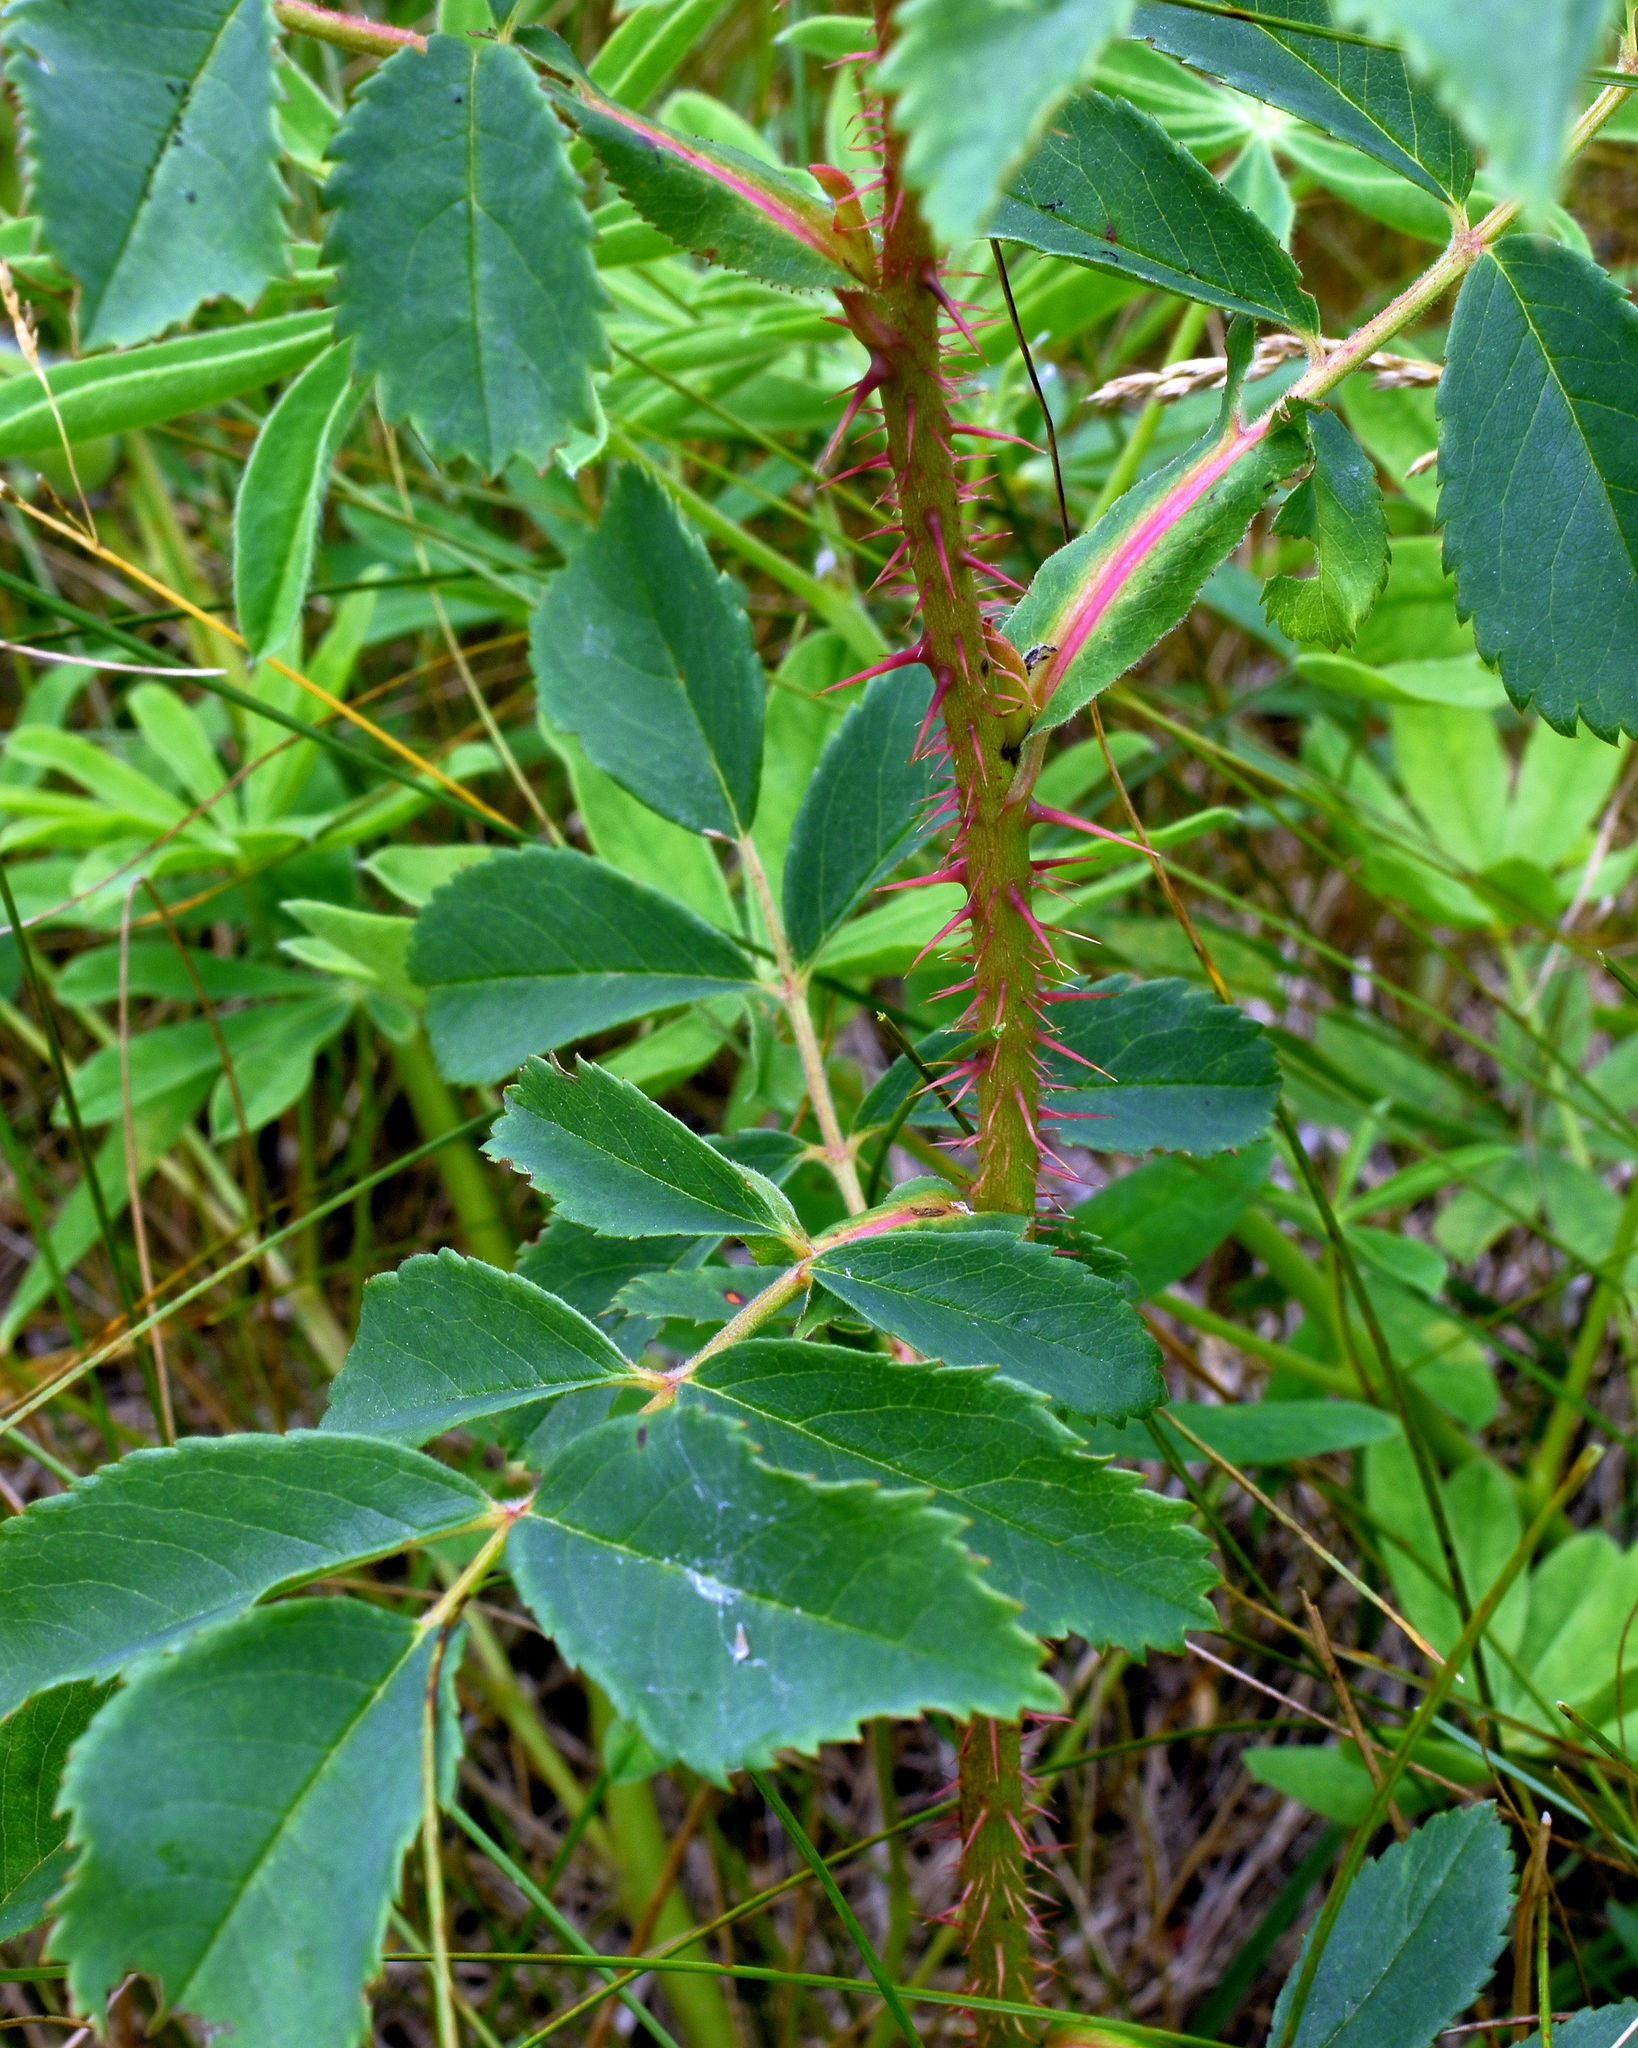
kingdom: Plantae
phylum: Tracheophyta
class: Magnoliopsida
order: Rosales
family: Rosaceae
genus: Rosa
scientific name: Rosa arkansana
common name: Prairie rose
